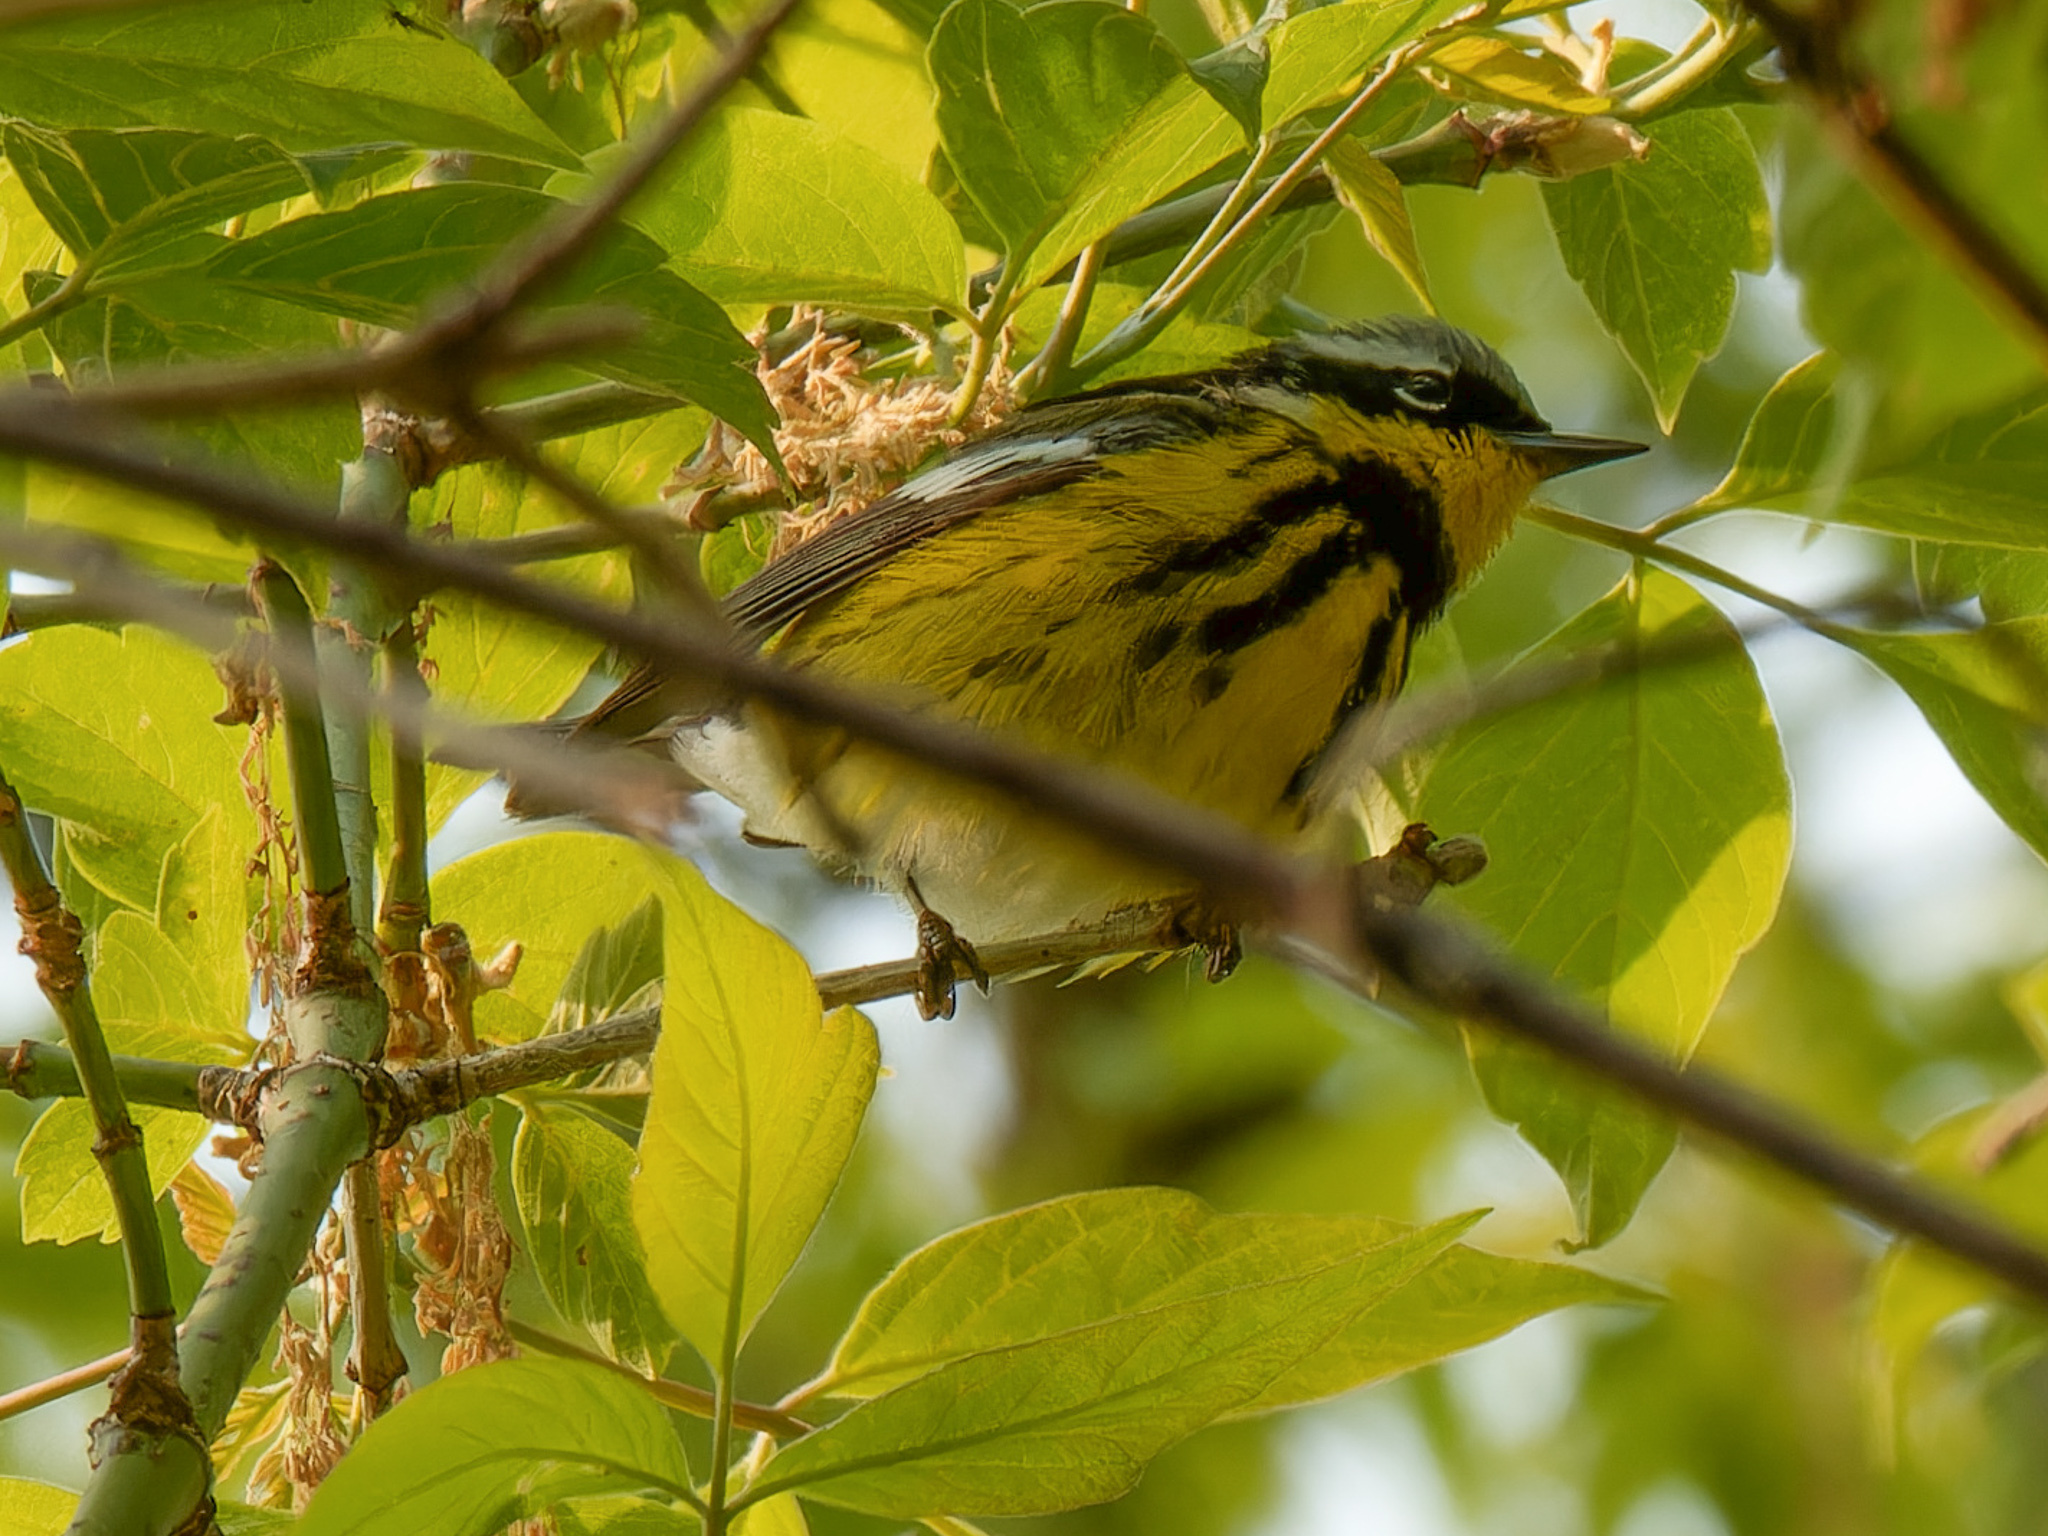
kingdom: Animalia
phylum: Chordata
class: Aves
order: Passeriformes
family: Parulidae
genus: Setophaga
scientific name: Setophaga magnolia
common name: Magnolia warbler
